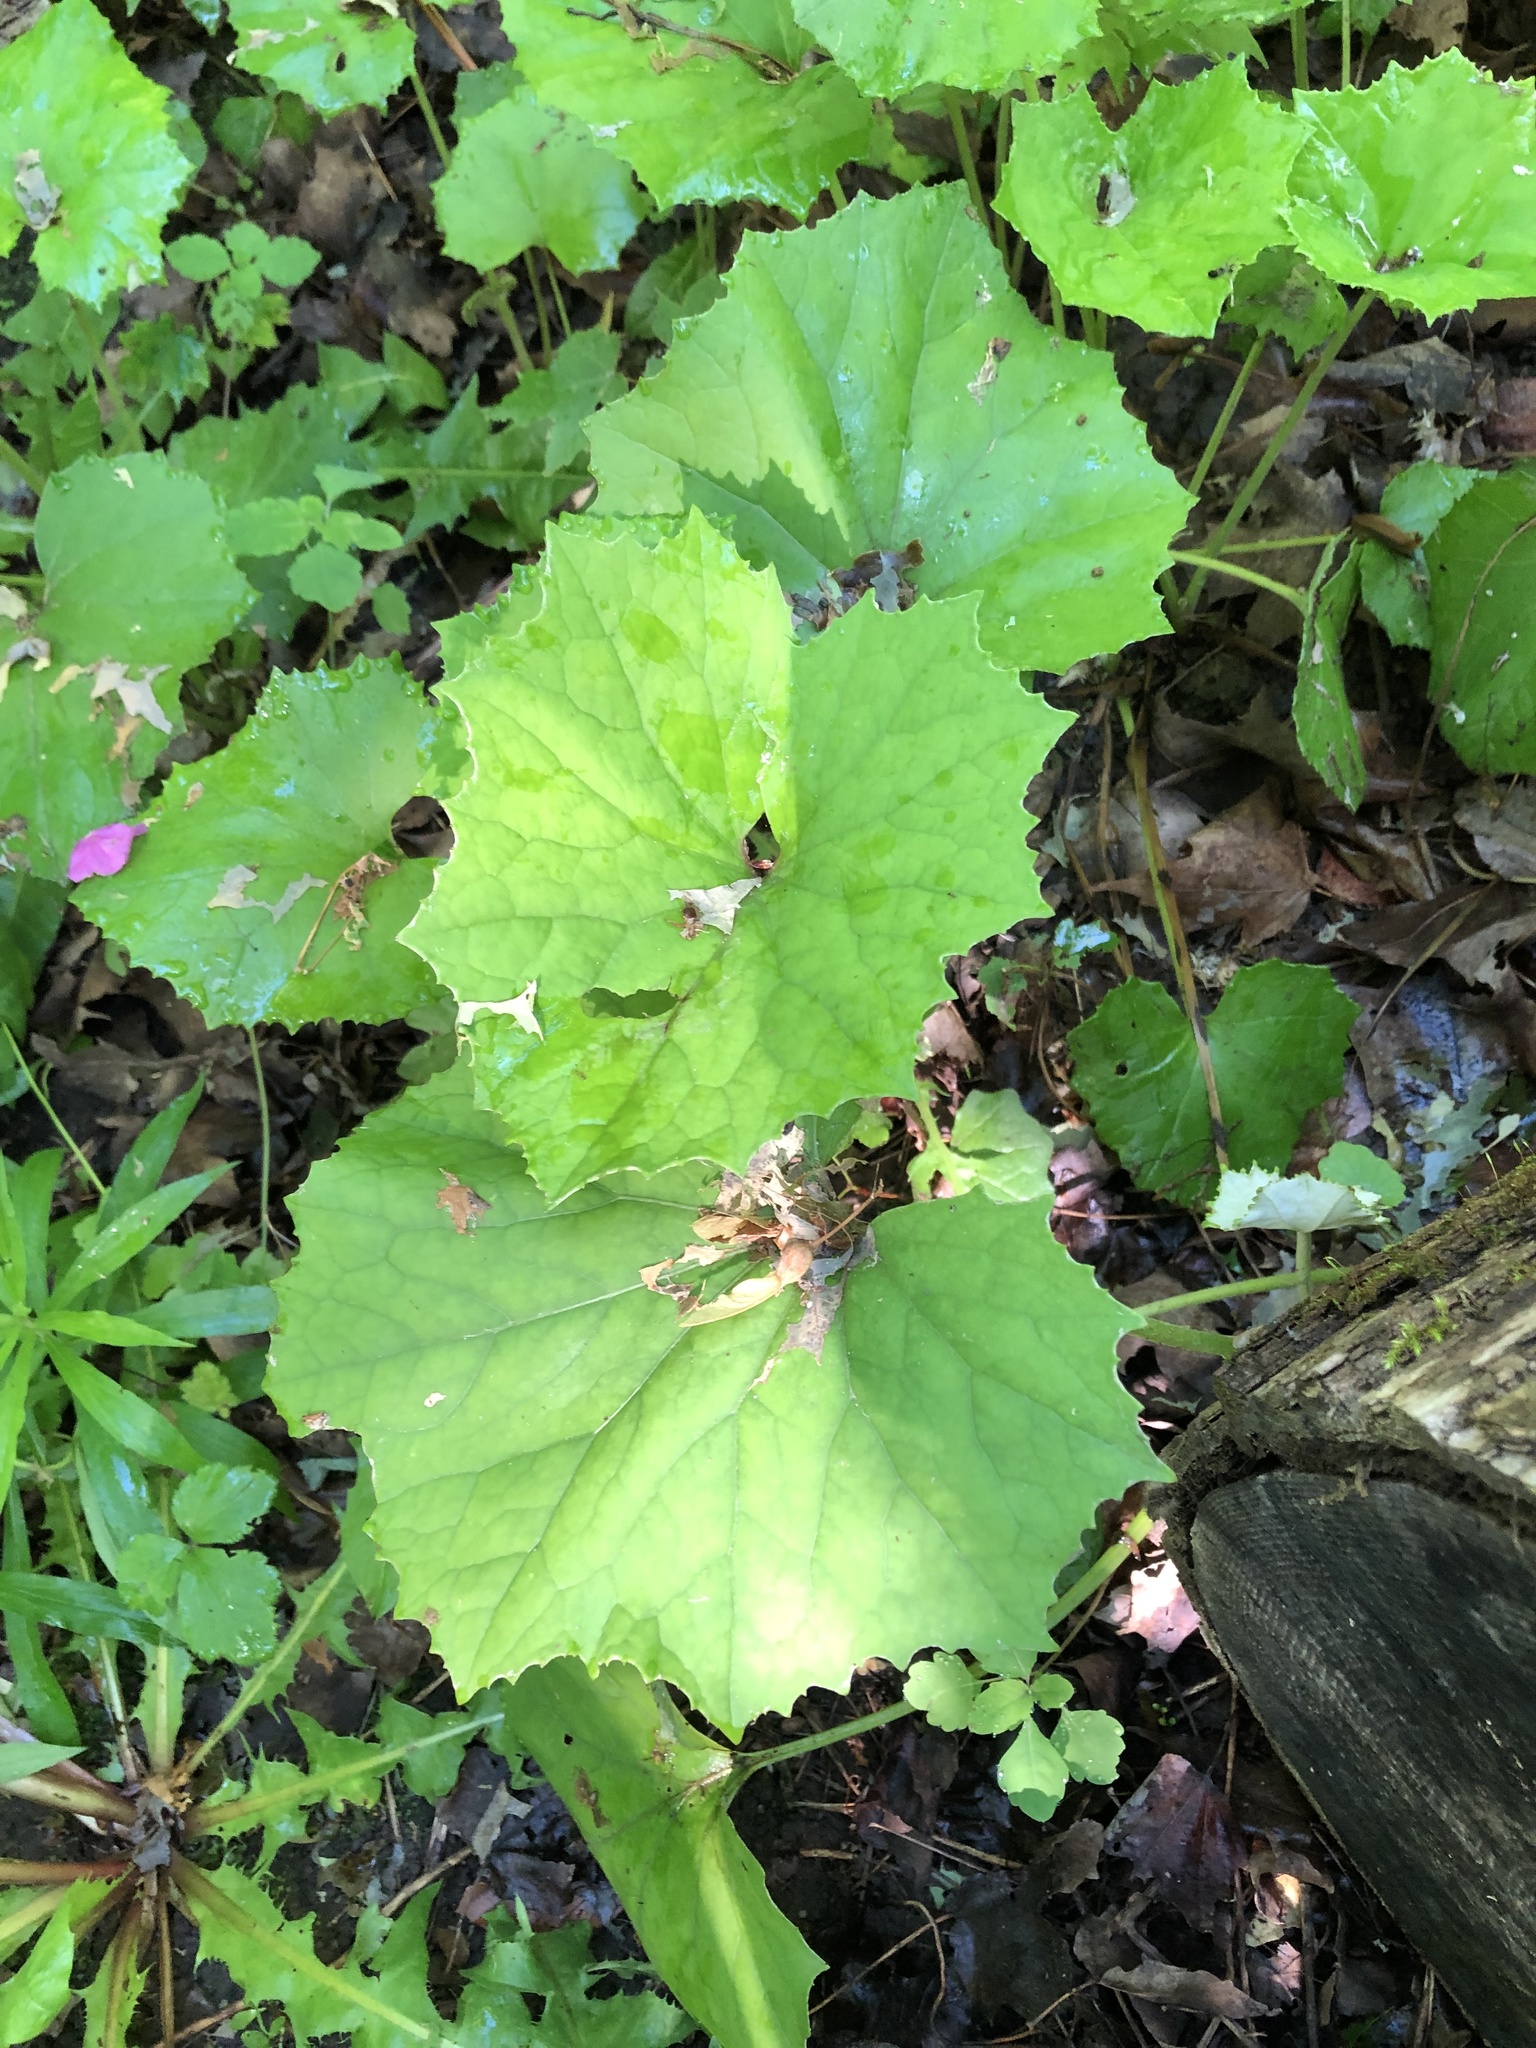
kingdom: Plantae
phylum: Tracheophyta
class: Magnoliopsida
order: Asterales
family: Asteraceae
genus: Tussilago
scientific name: Tussilago farfara
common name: Coltsfoot
